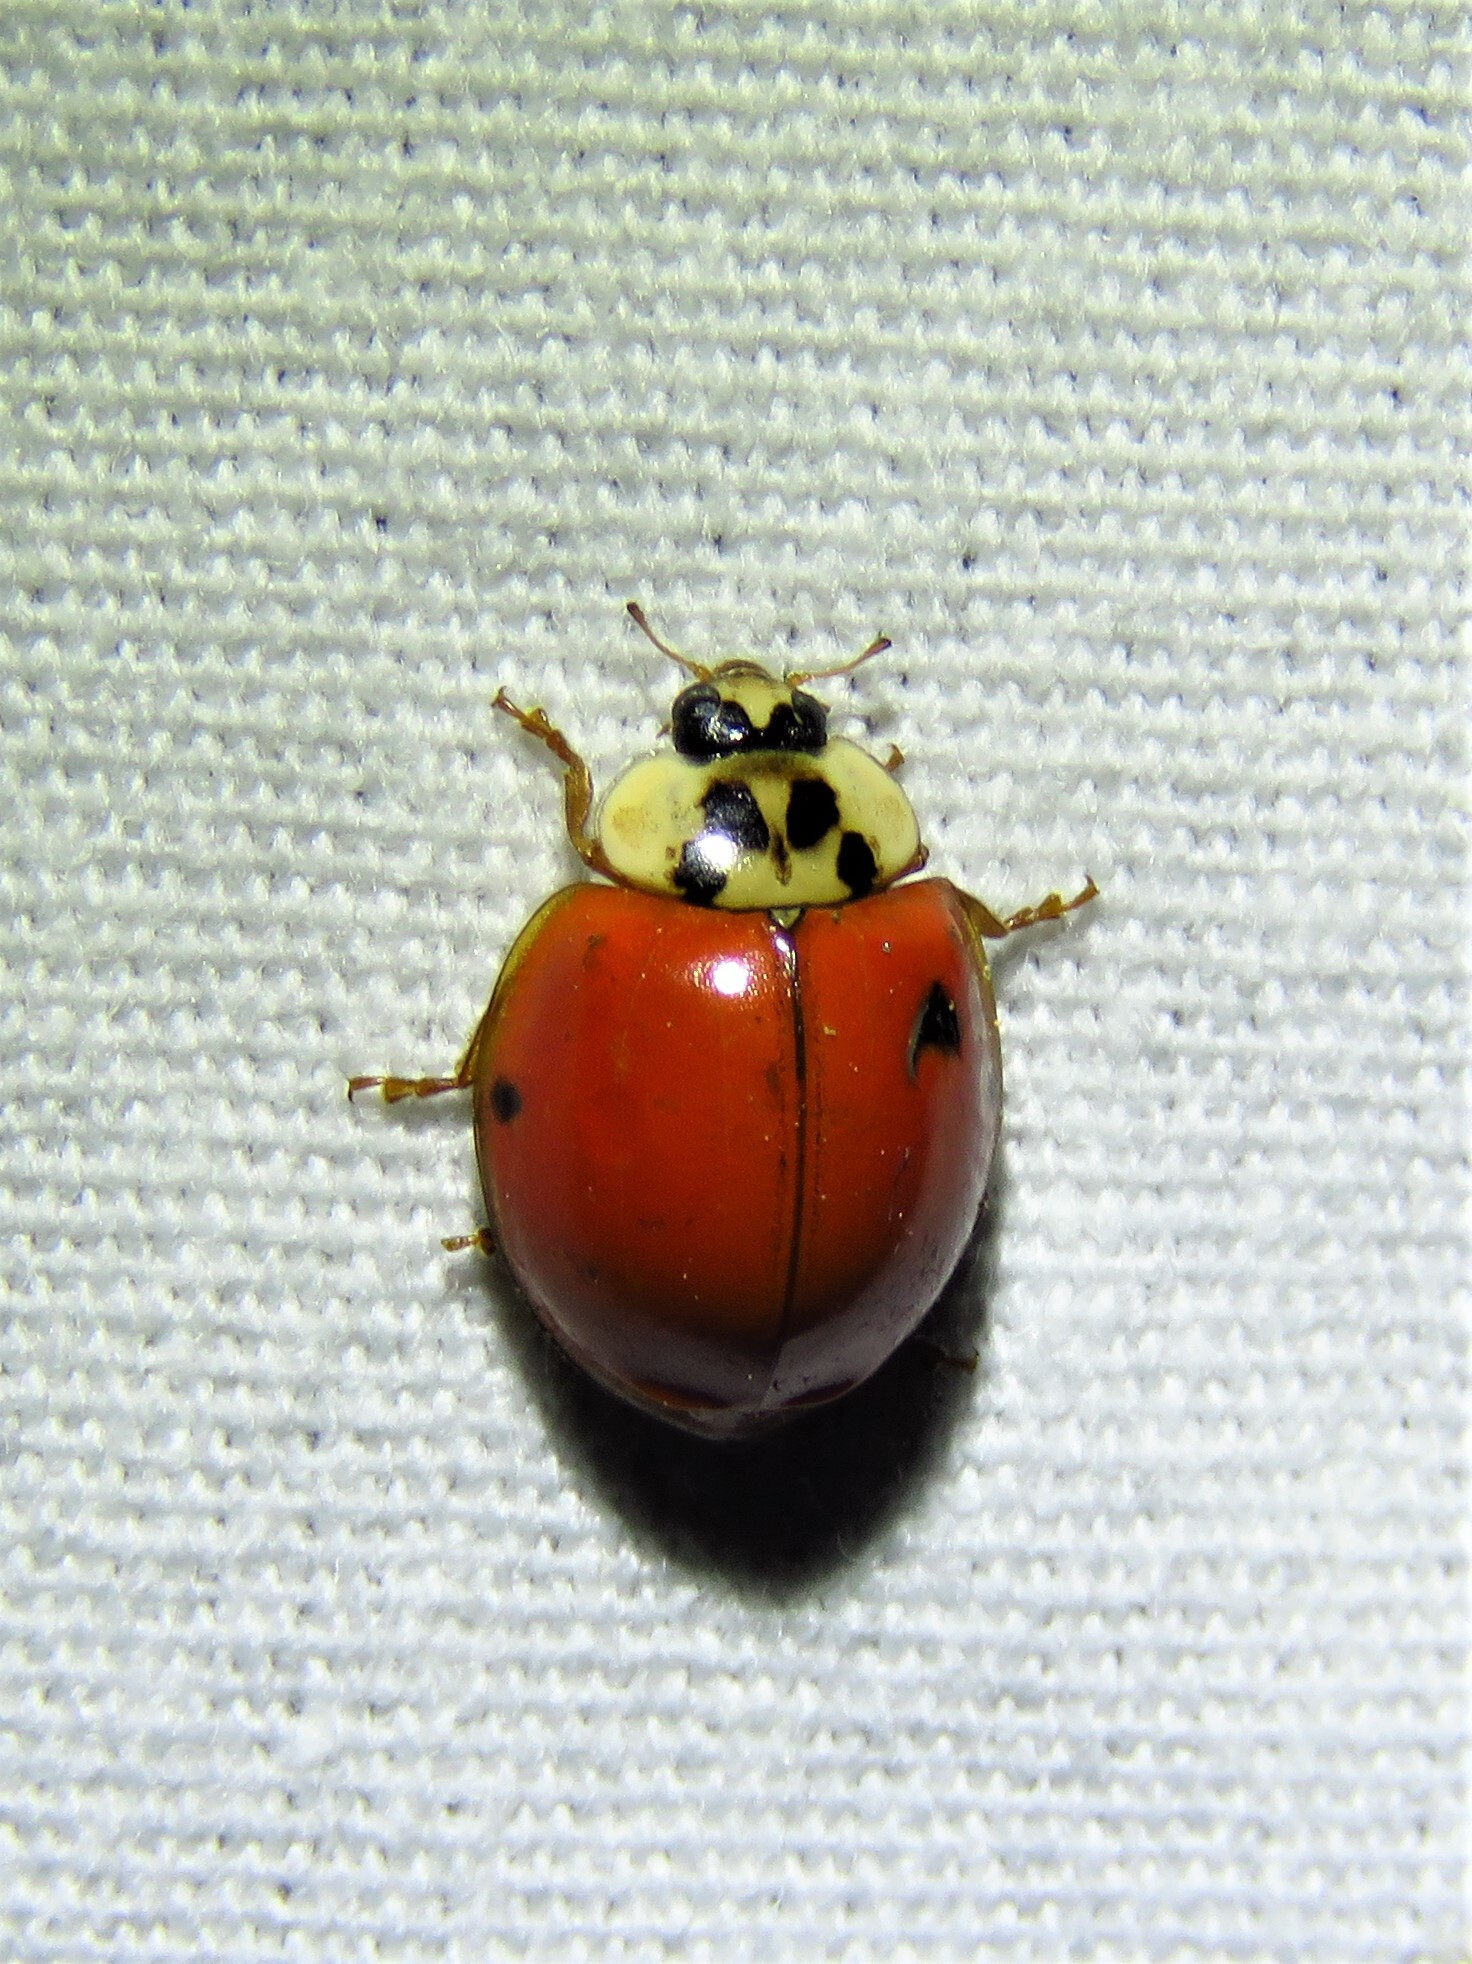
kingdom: Animalia
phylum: Arthropoda
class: Insecta
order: Coleoptera
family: Coccinellidae
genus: Harmonia
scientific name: Harmonia axyridis
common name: Harlequin ladybird
